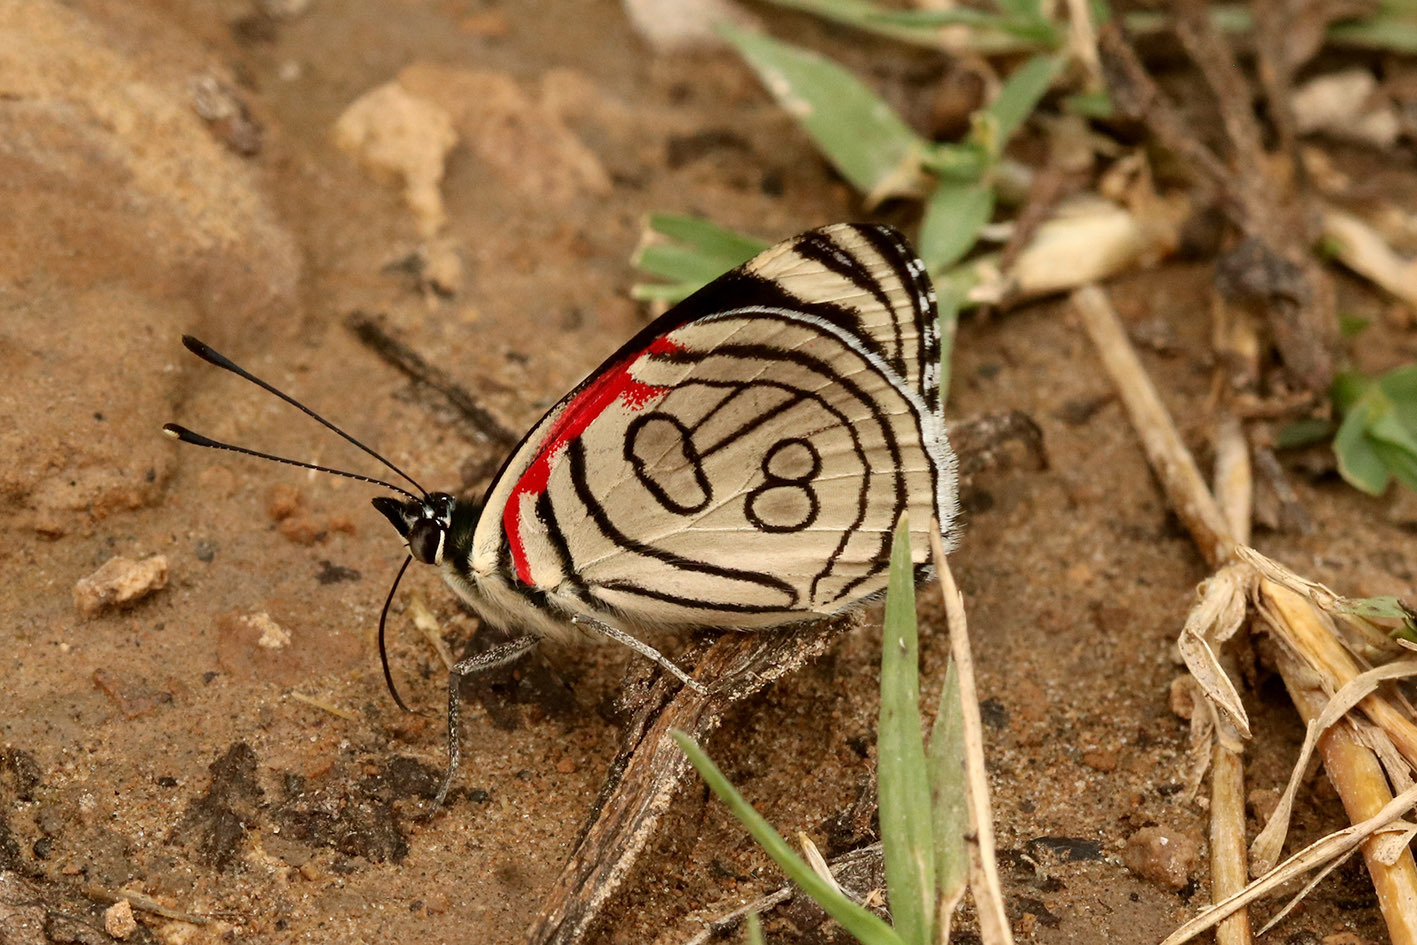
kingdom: Animalia
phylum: Arthropoda
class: Insecta
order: Lepidoptera
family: Nymphalidae
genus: Diaethria
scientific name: Diaethria candrena
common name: Number eighty
